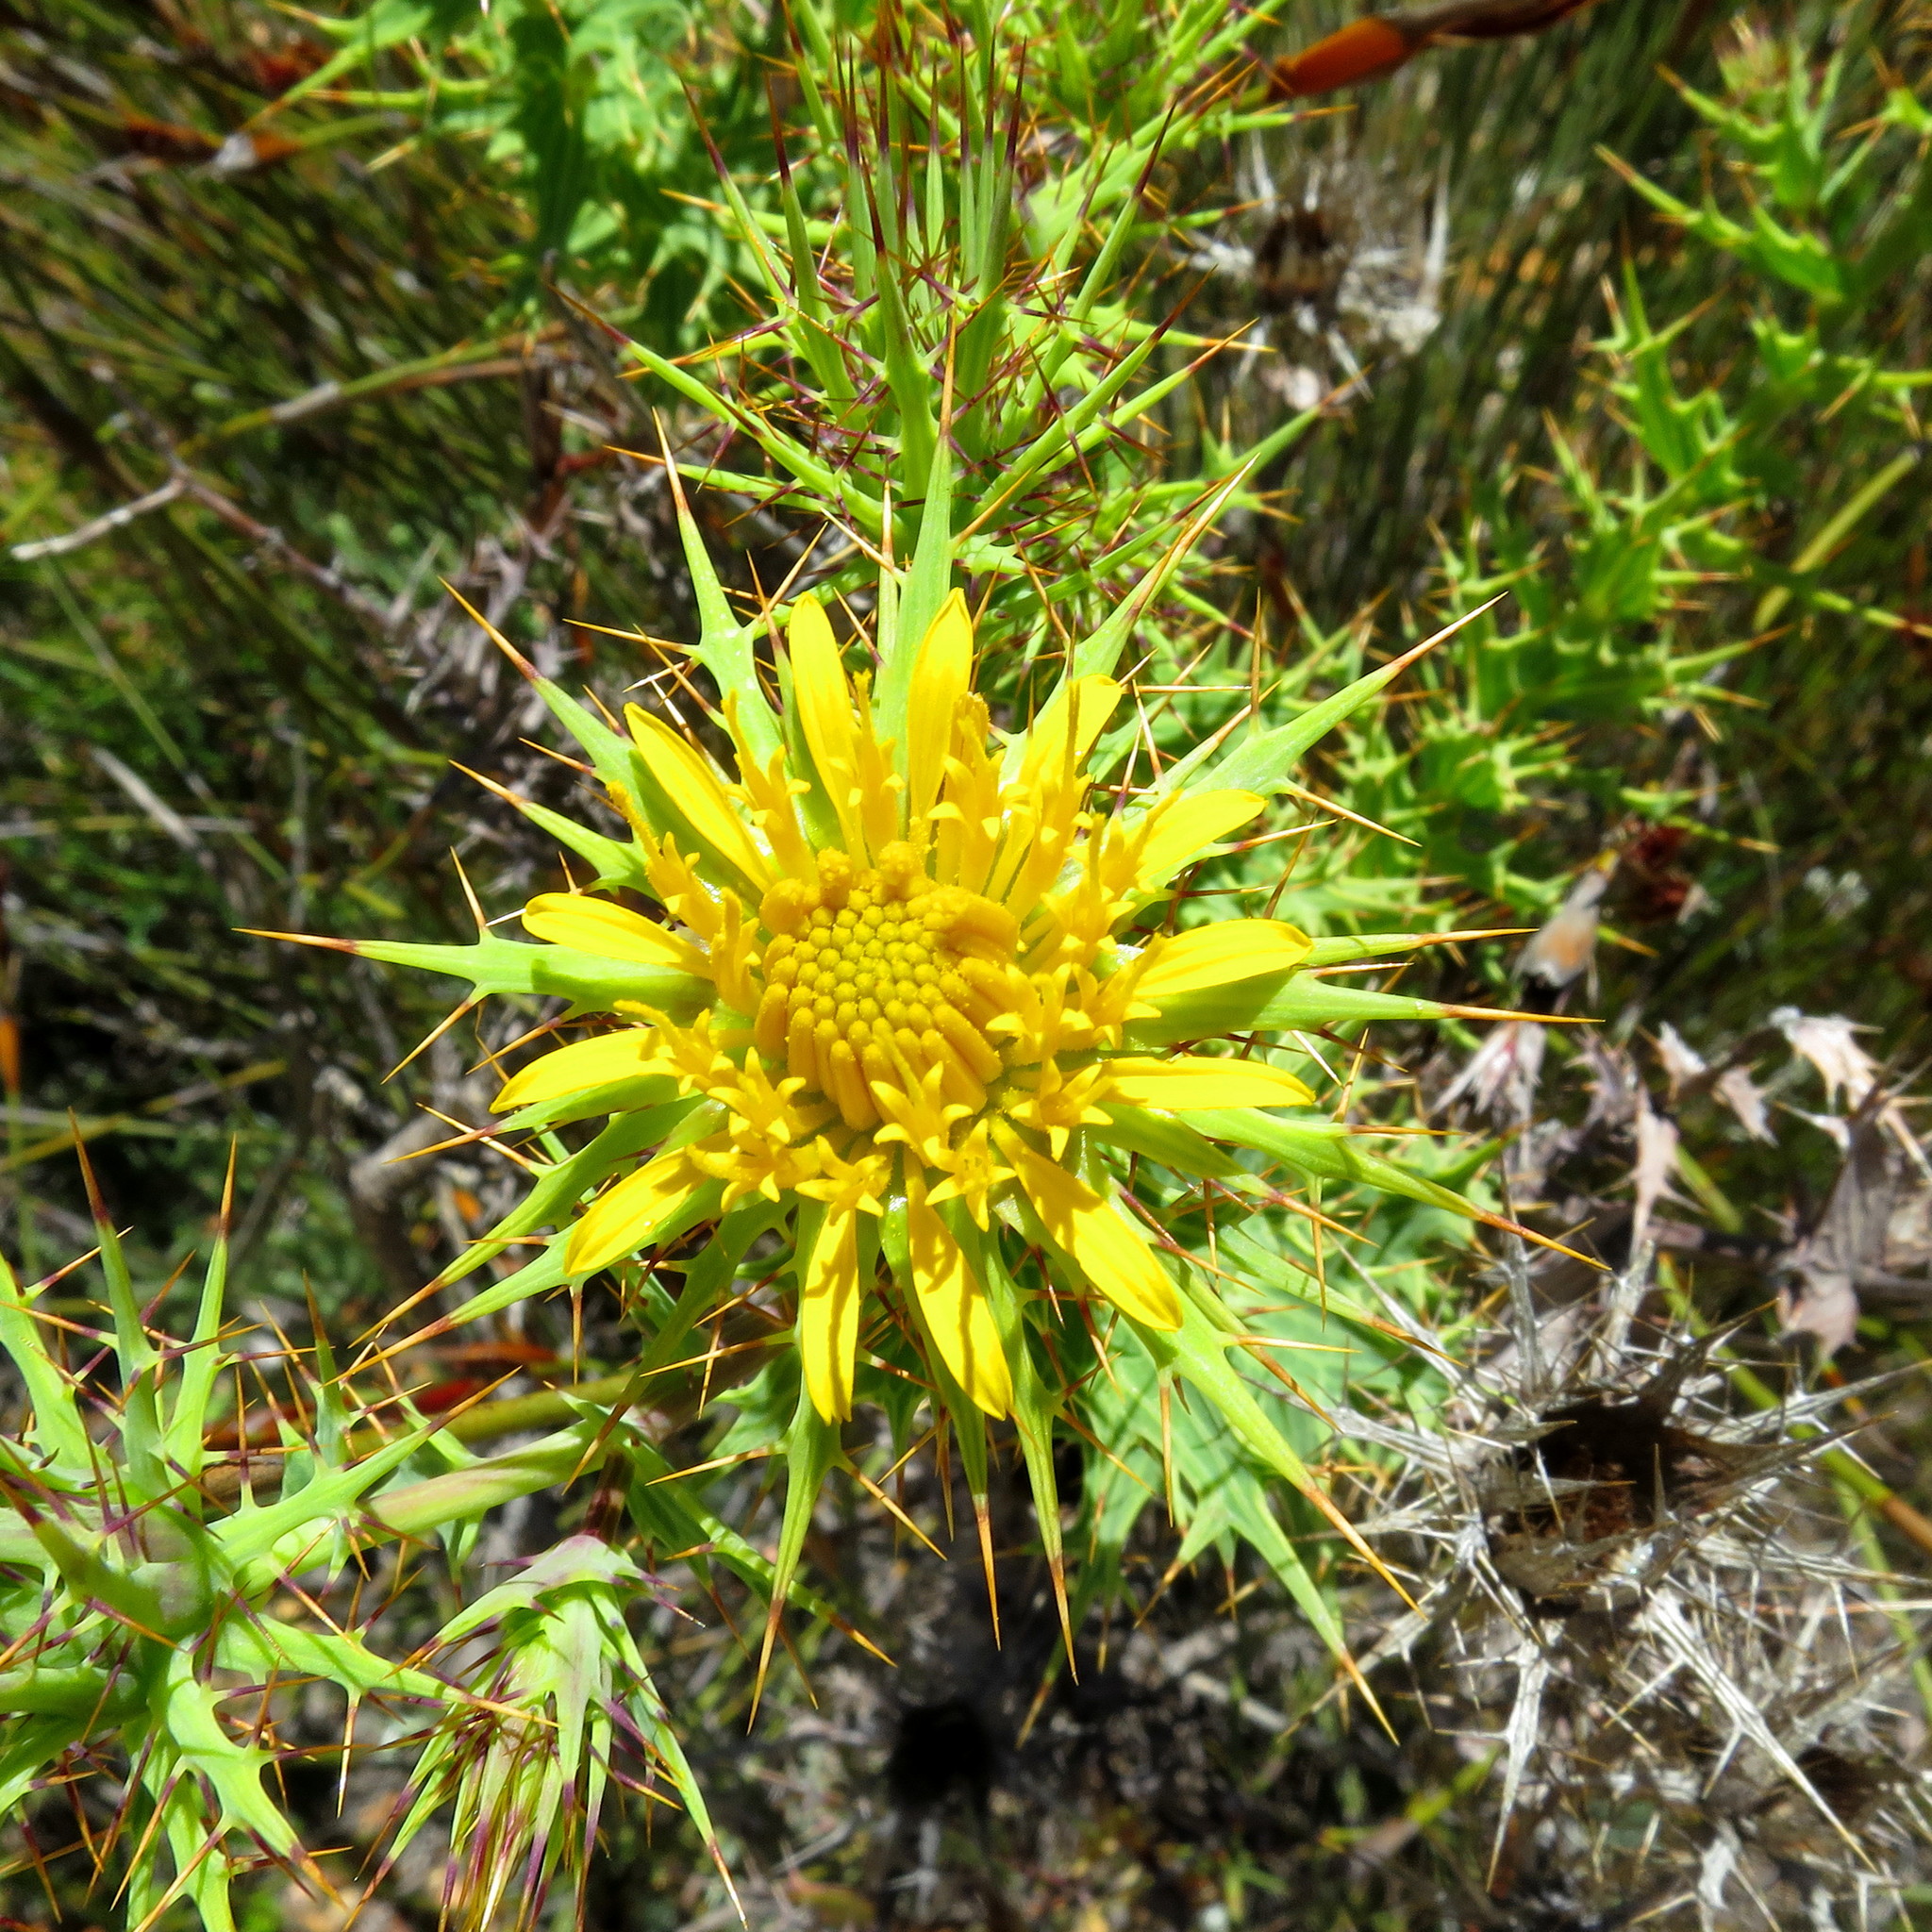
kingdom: Plantae
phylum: Tracheophyta
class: Magnoliopsida
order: Asterales
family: Asteraceae
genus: Berkheya
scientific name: Berkheya cruciata
